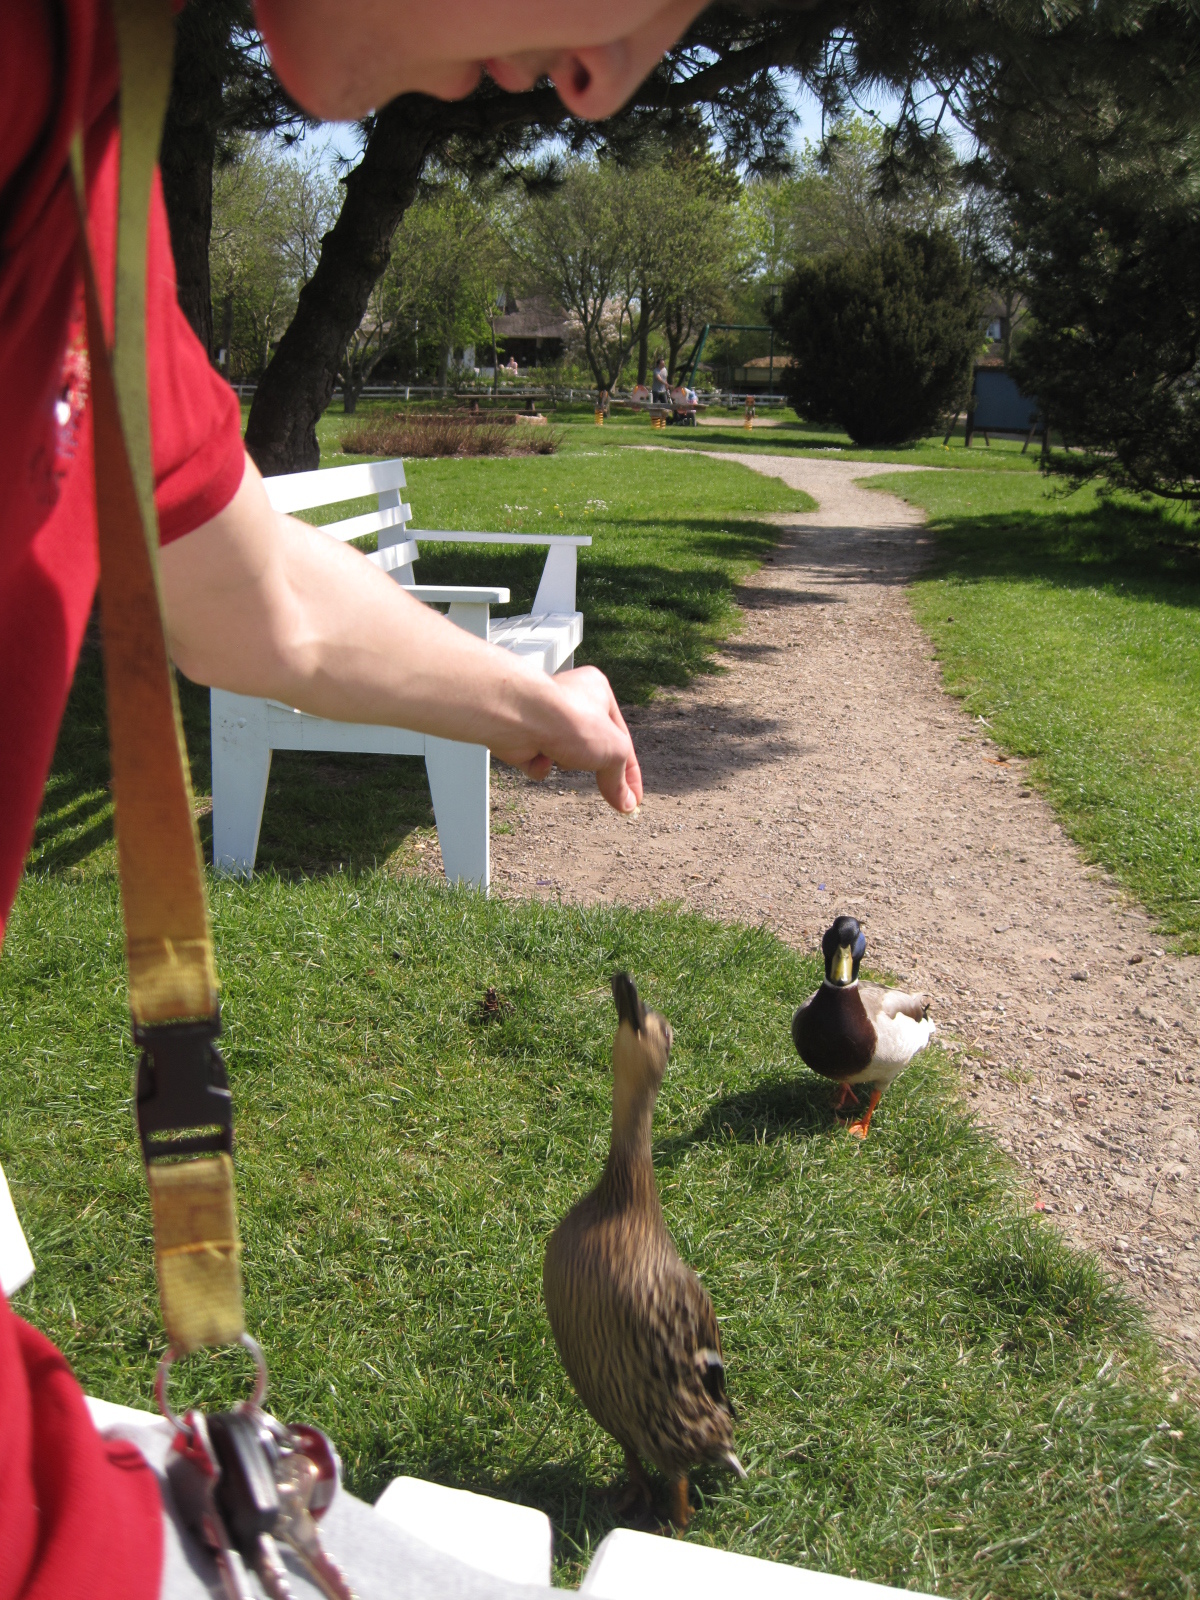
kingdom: Animalia
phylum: Chordata
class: Aves
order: Anseriformes
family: Anatidae
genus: Anas
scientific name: Anas platyrhynchos
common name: Mallard
